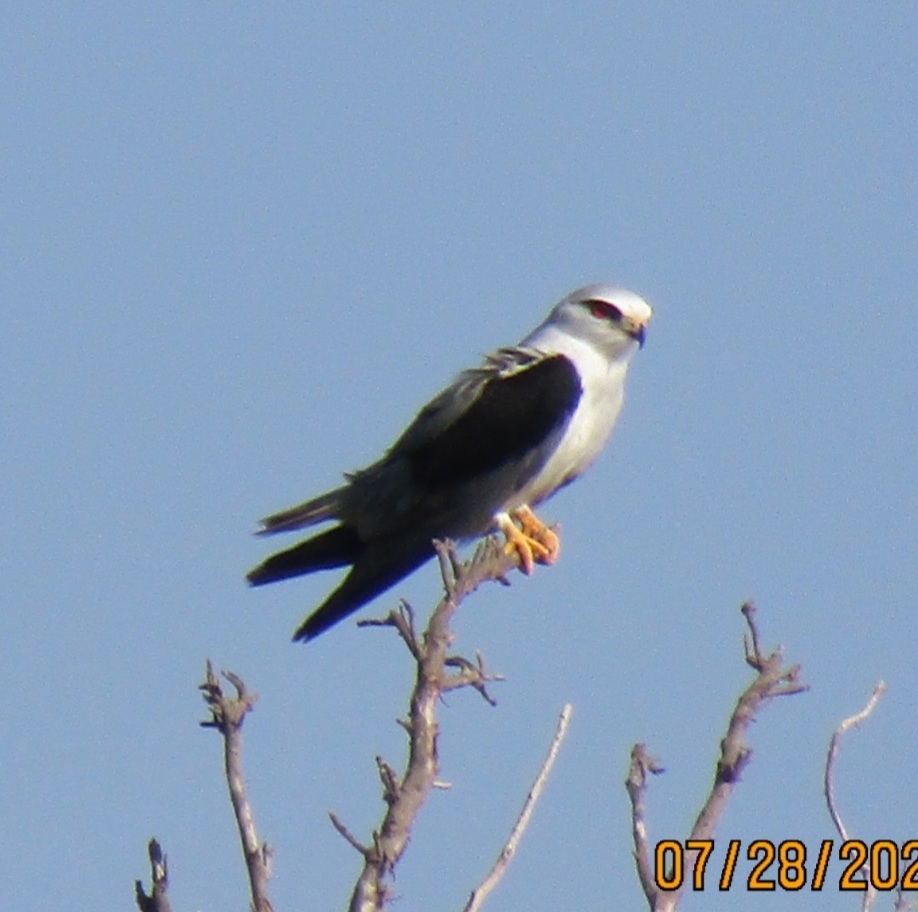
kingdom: Animalia
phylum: Chordata
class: Aves
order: Accipitriformes
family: Accipitridae
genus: Elanus
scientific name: Elanus caeruleus
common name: Black-winged kite
